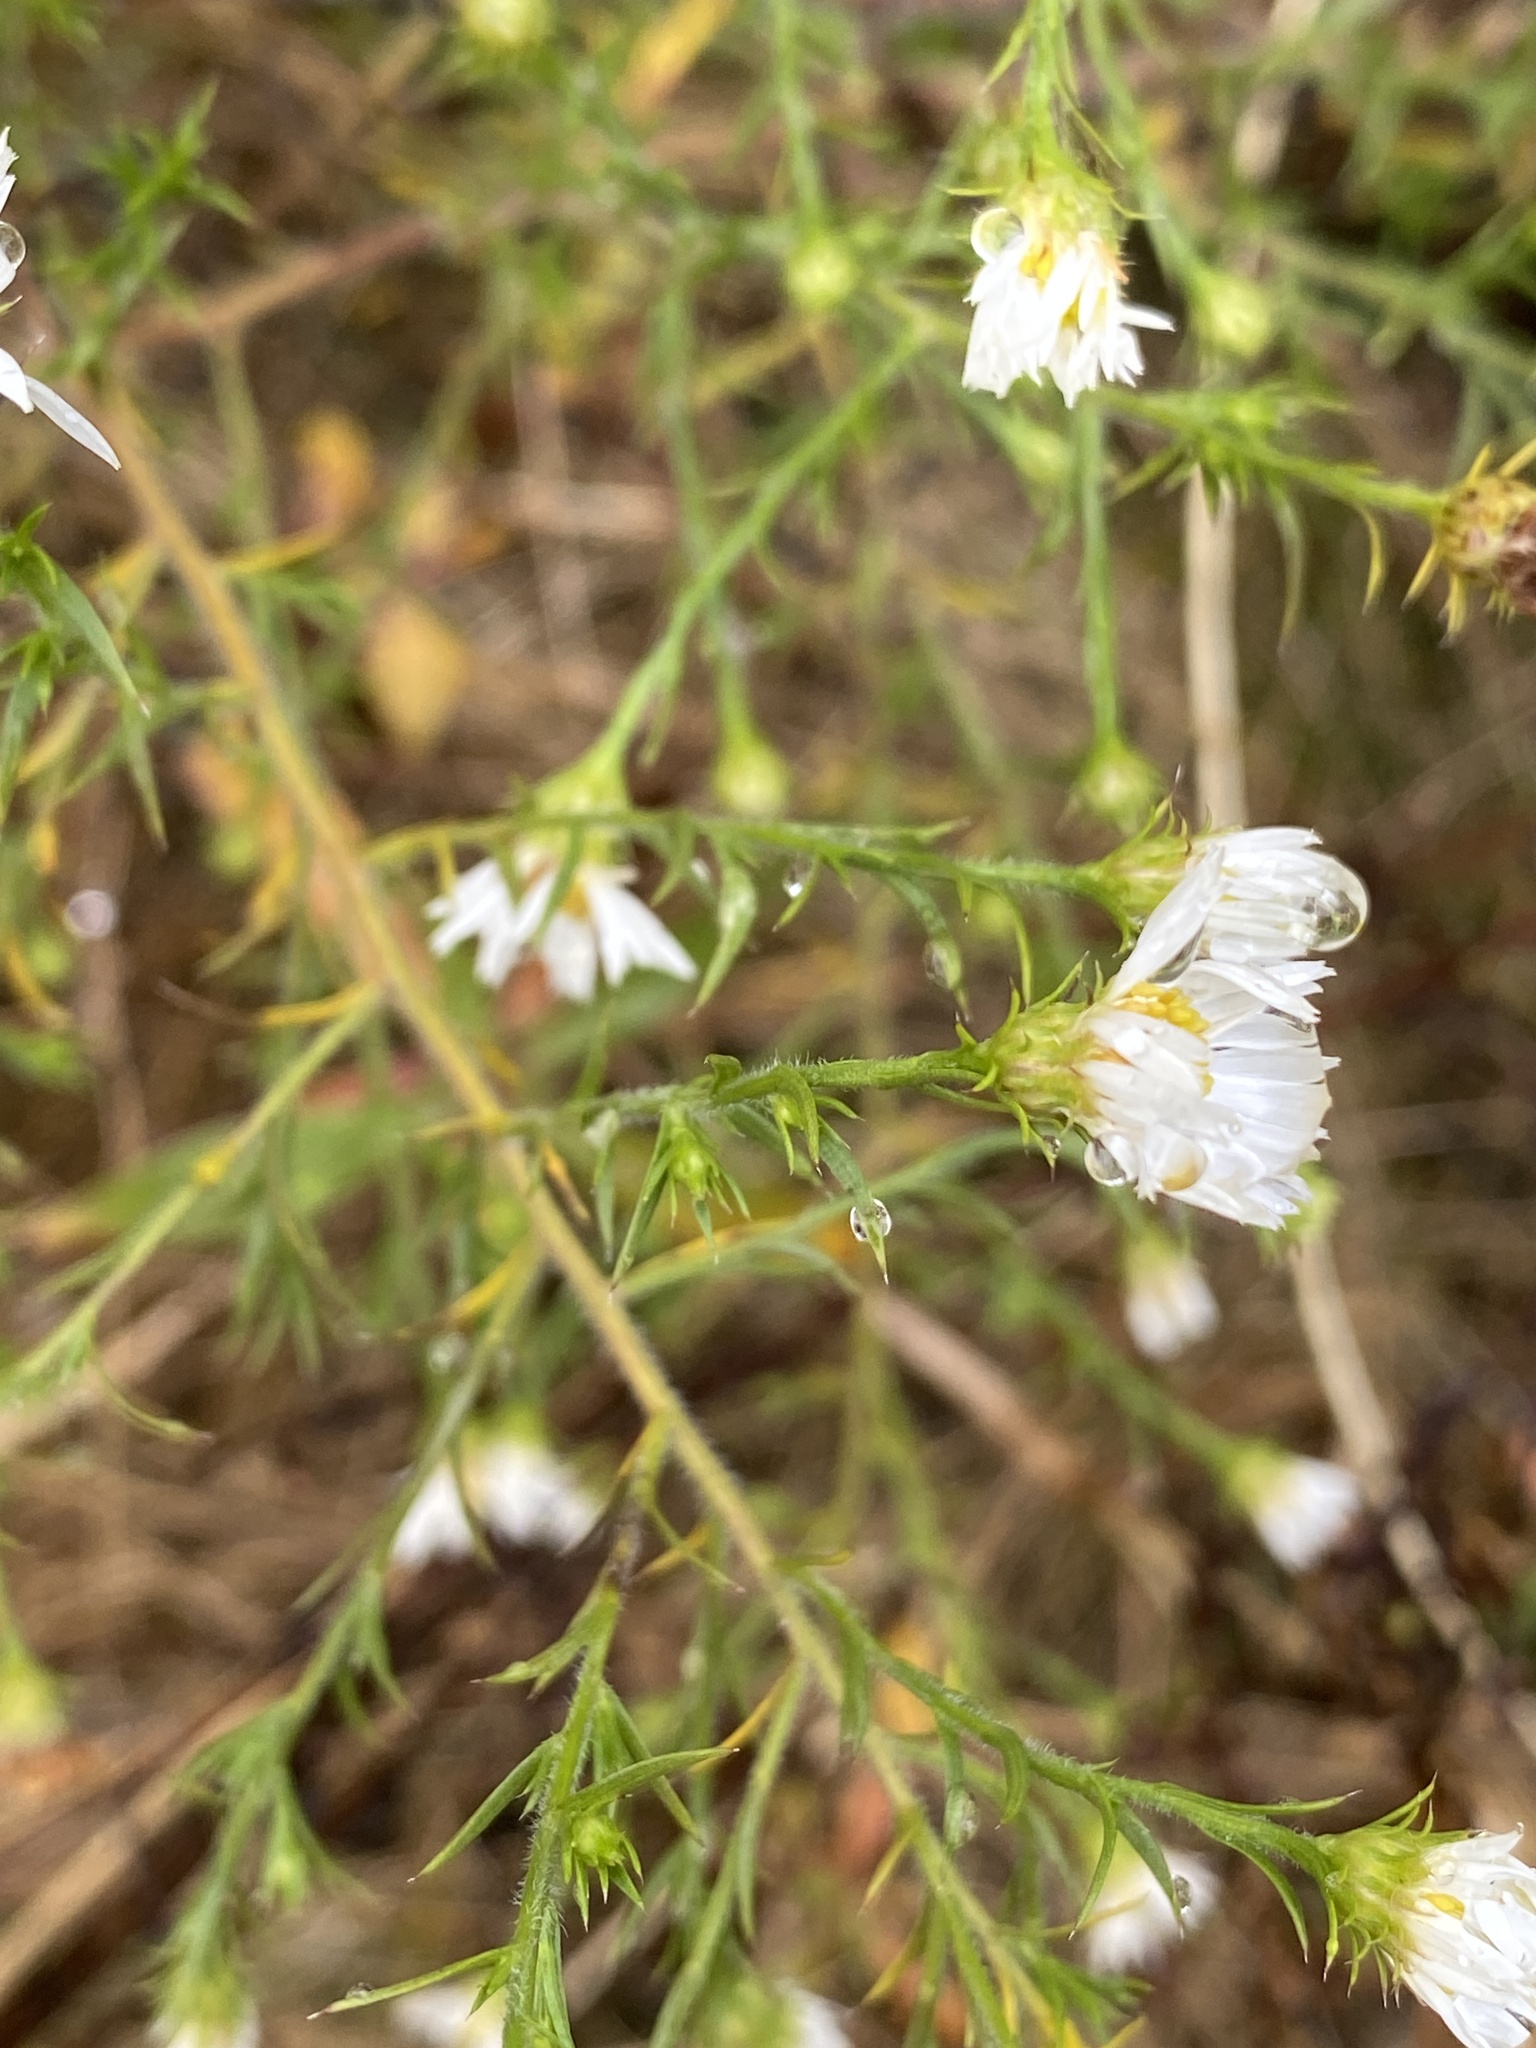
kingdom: Plantae
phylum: Tracheophyta
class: Magnoliopsida
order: Asterales
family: Asteraceae
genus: Symphyotrichum
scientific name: Symphyotrichum pilosum
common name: Awl aster
